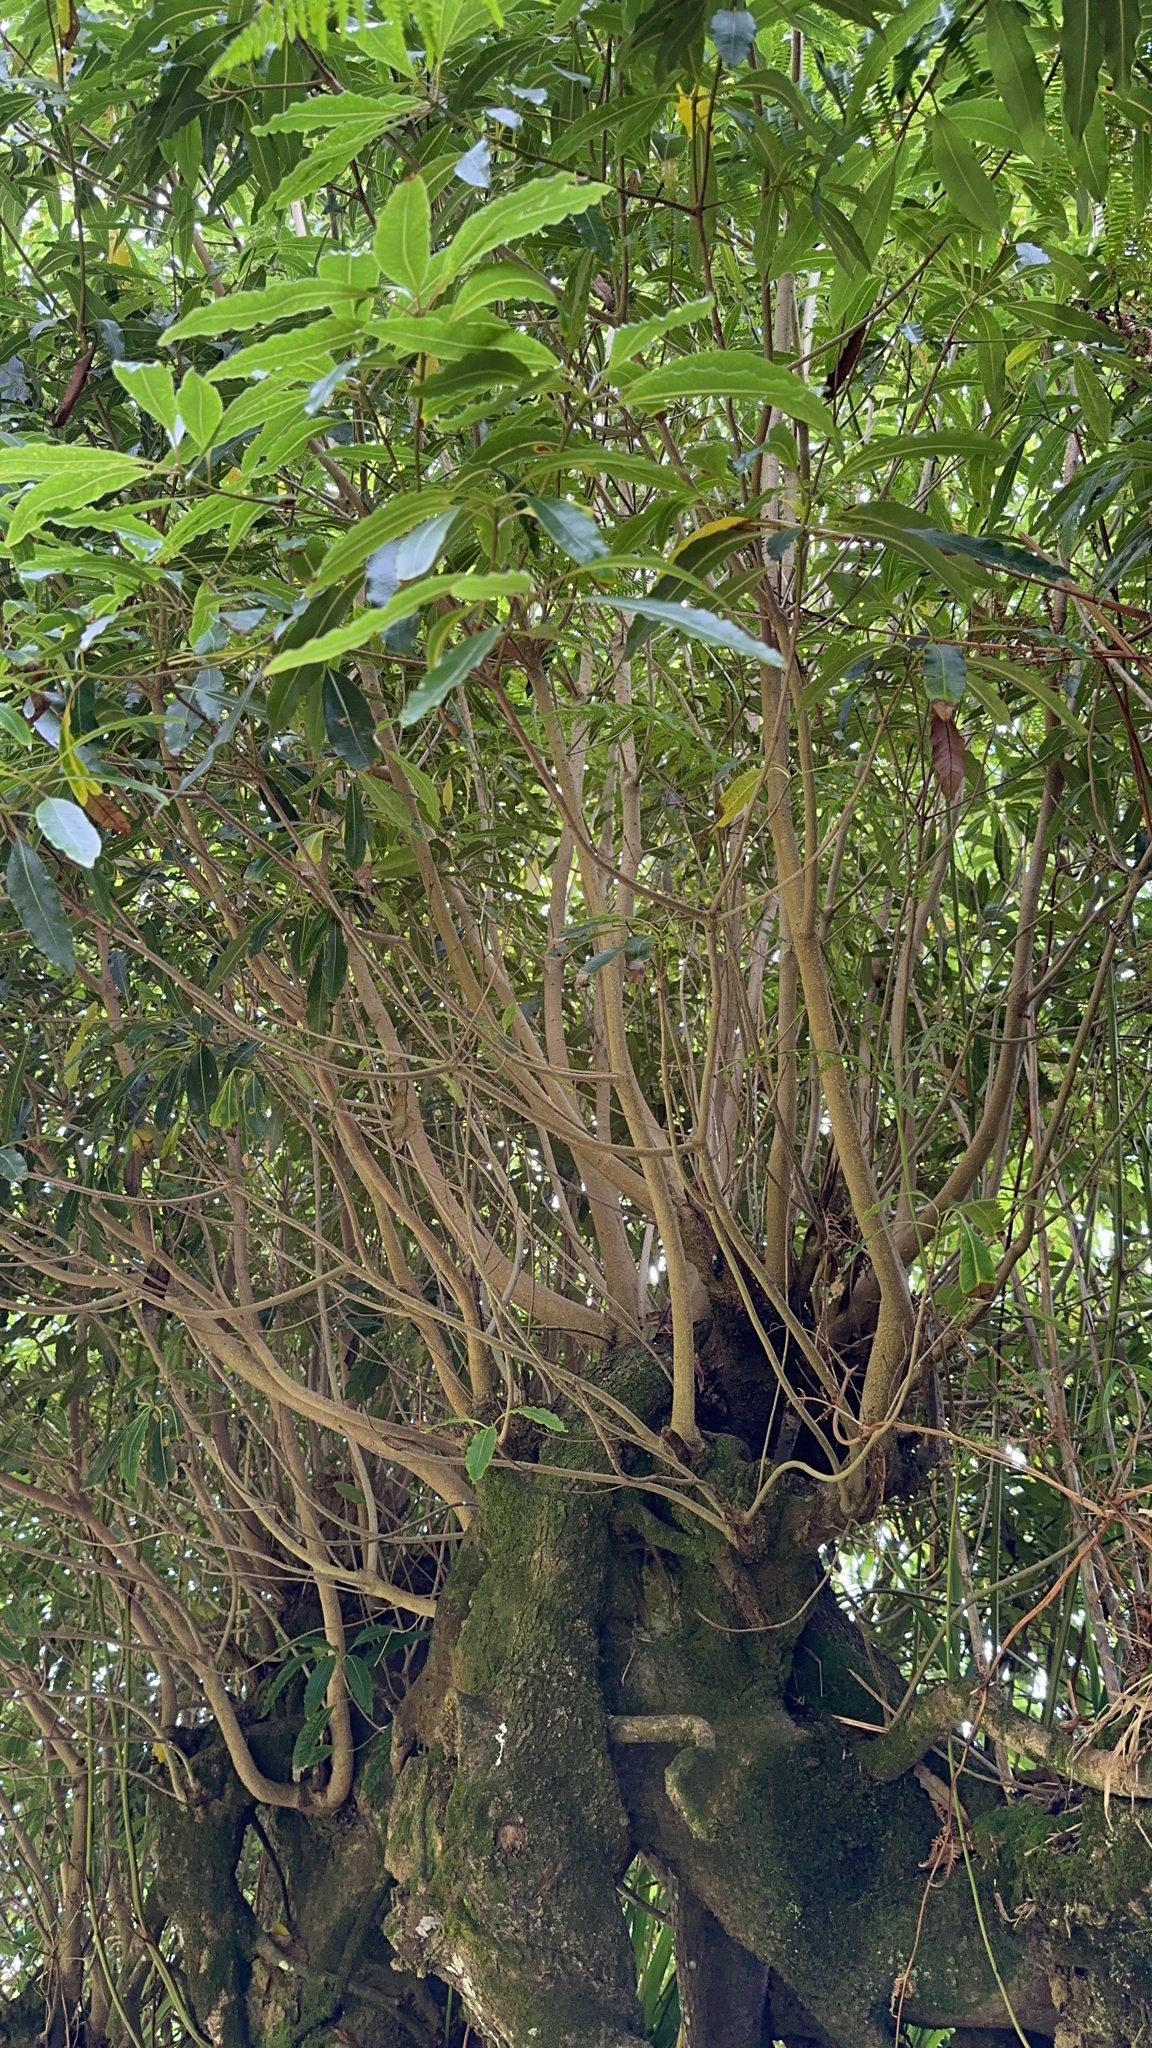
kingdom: Plantae
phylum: Tracheophyta
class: Magnoliopsida
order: Apiales
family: Pittosporaceae
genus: Pittosporum
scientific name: Pittosporum undulatum
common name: Australian cheesewood
